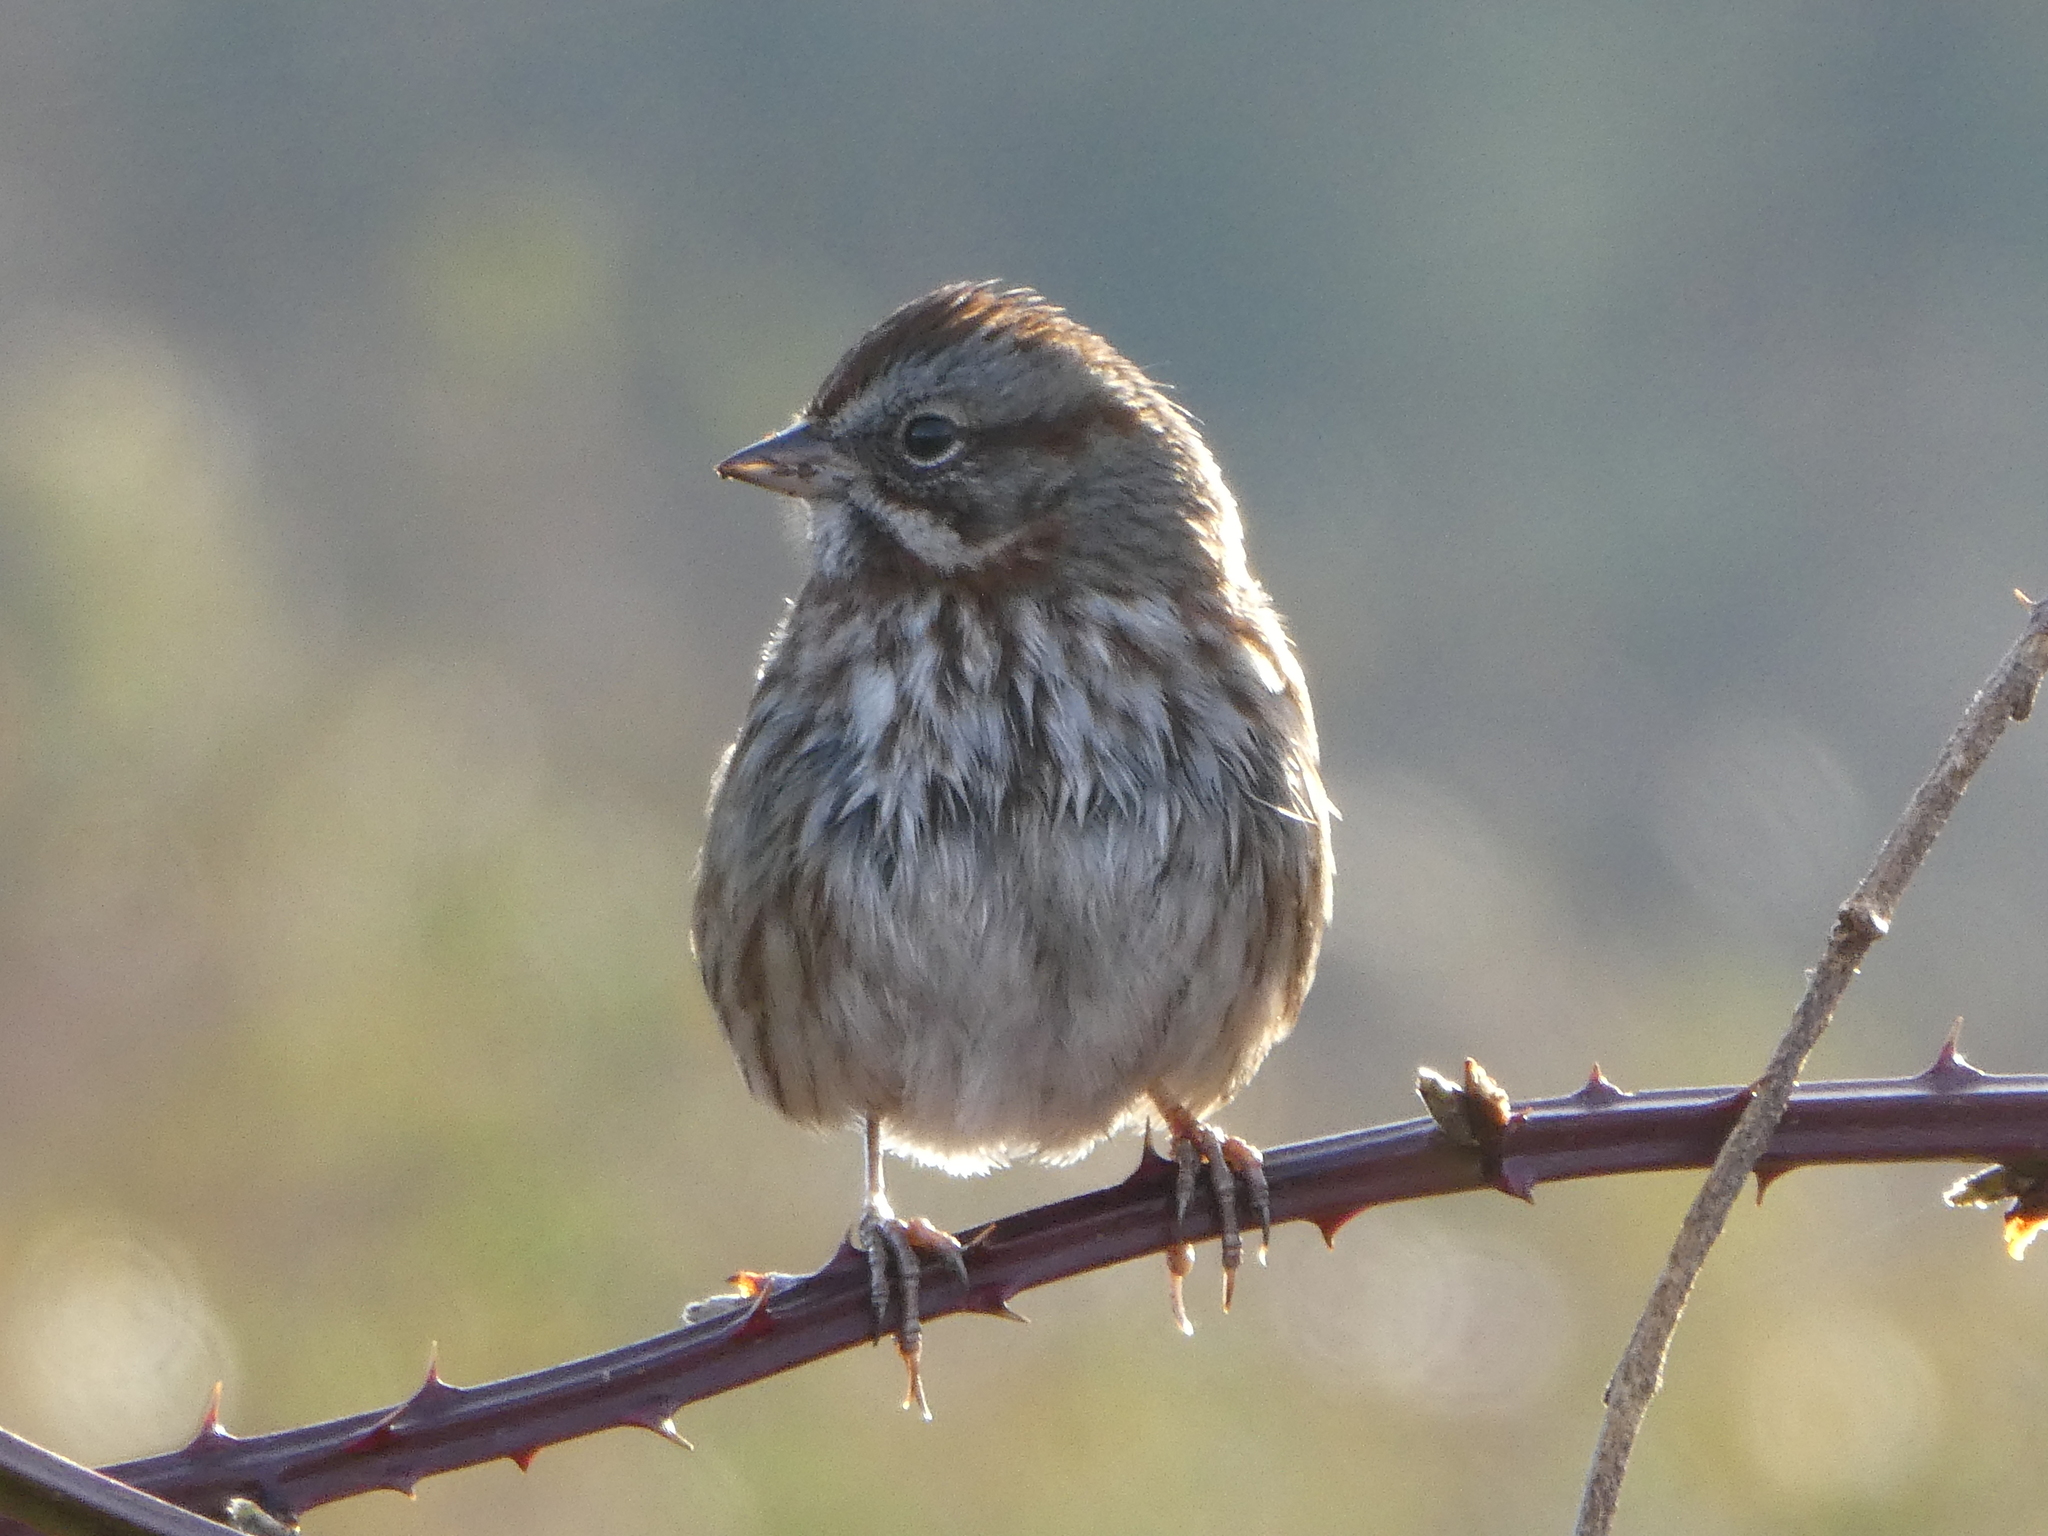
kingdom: Animalia
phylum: Chordata
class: Aves
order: Passeriformes
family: Passerellidae
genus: Melospiza
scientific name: Melospiza melodia
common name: Song sparrow
